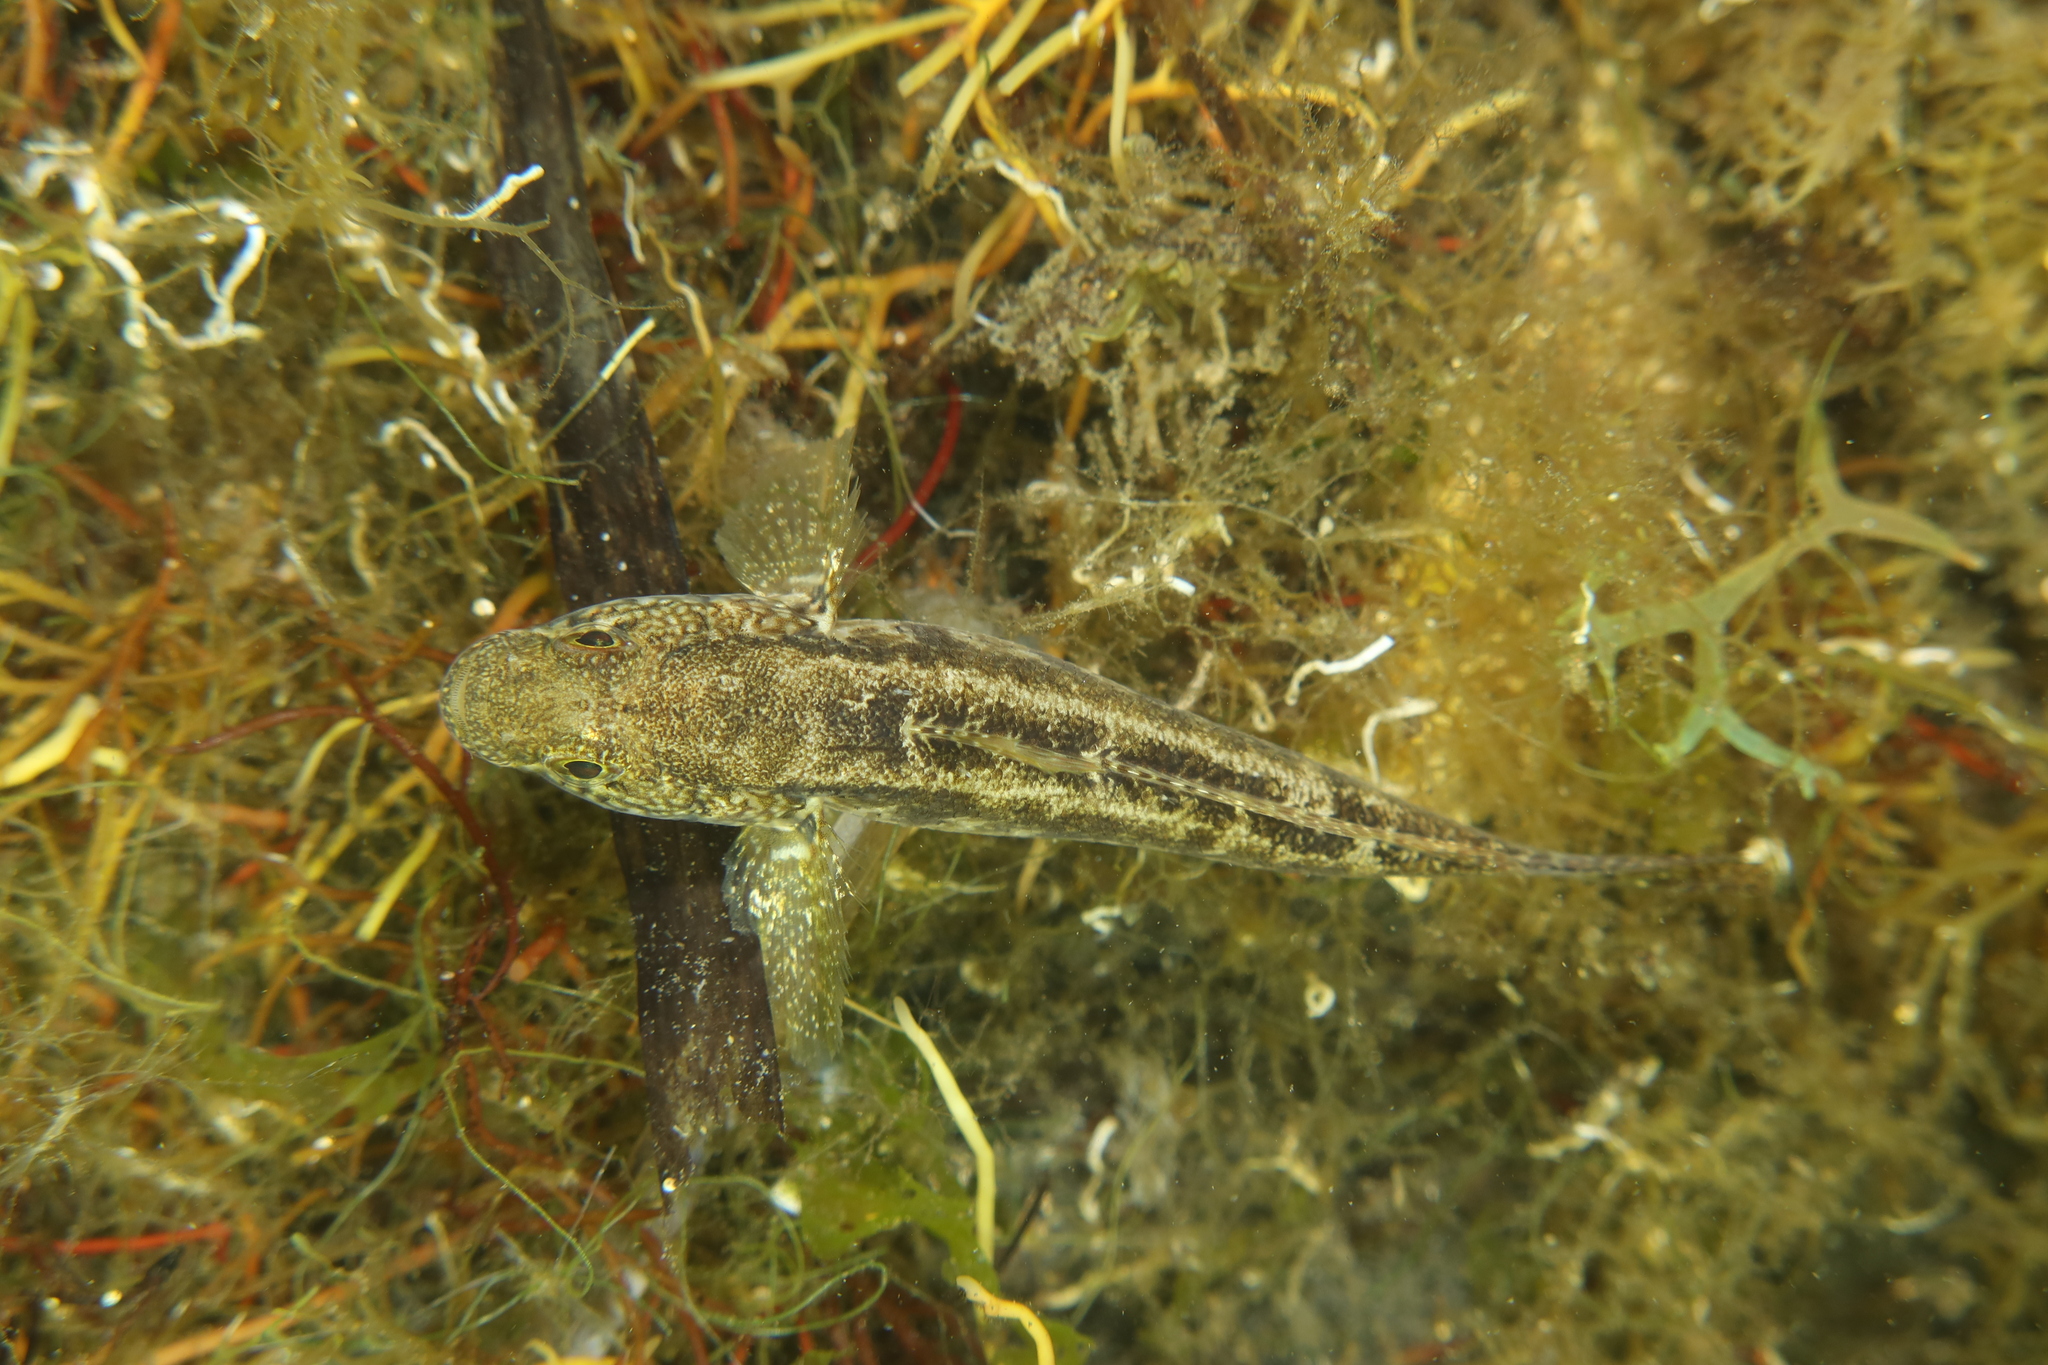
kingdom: Animalia
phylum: Chordata
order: Perciformes
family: Gobiidae
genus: Zosterisessor
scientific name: Zosterisessor ophiocephalus
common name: Grass goby
